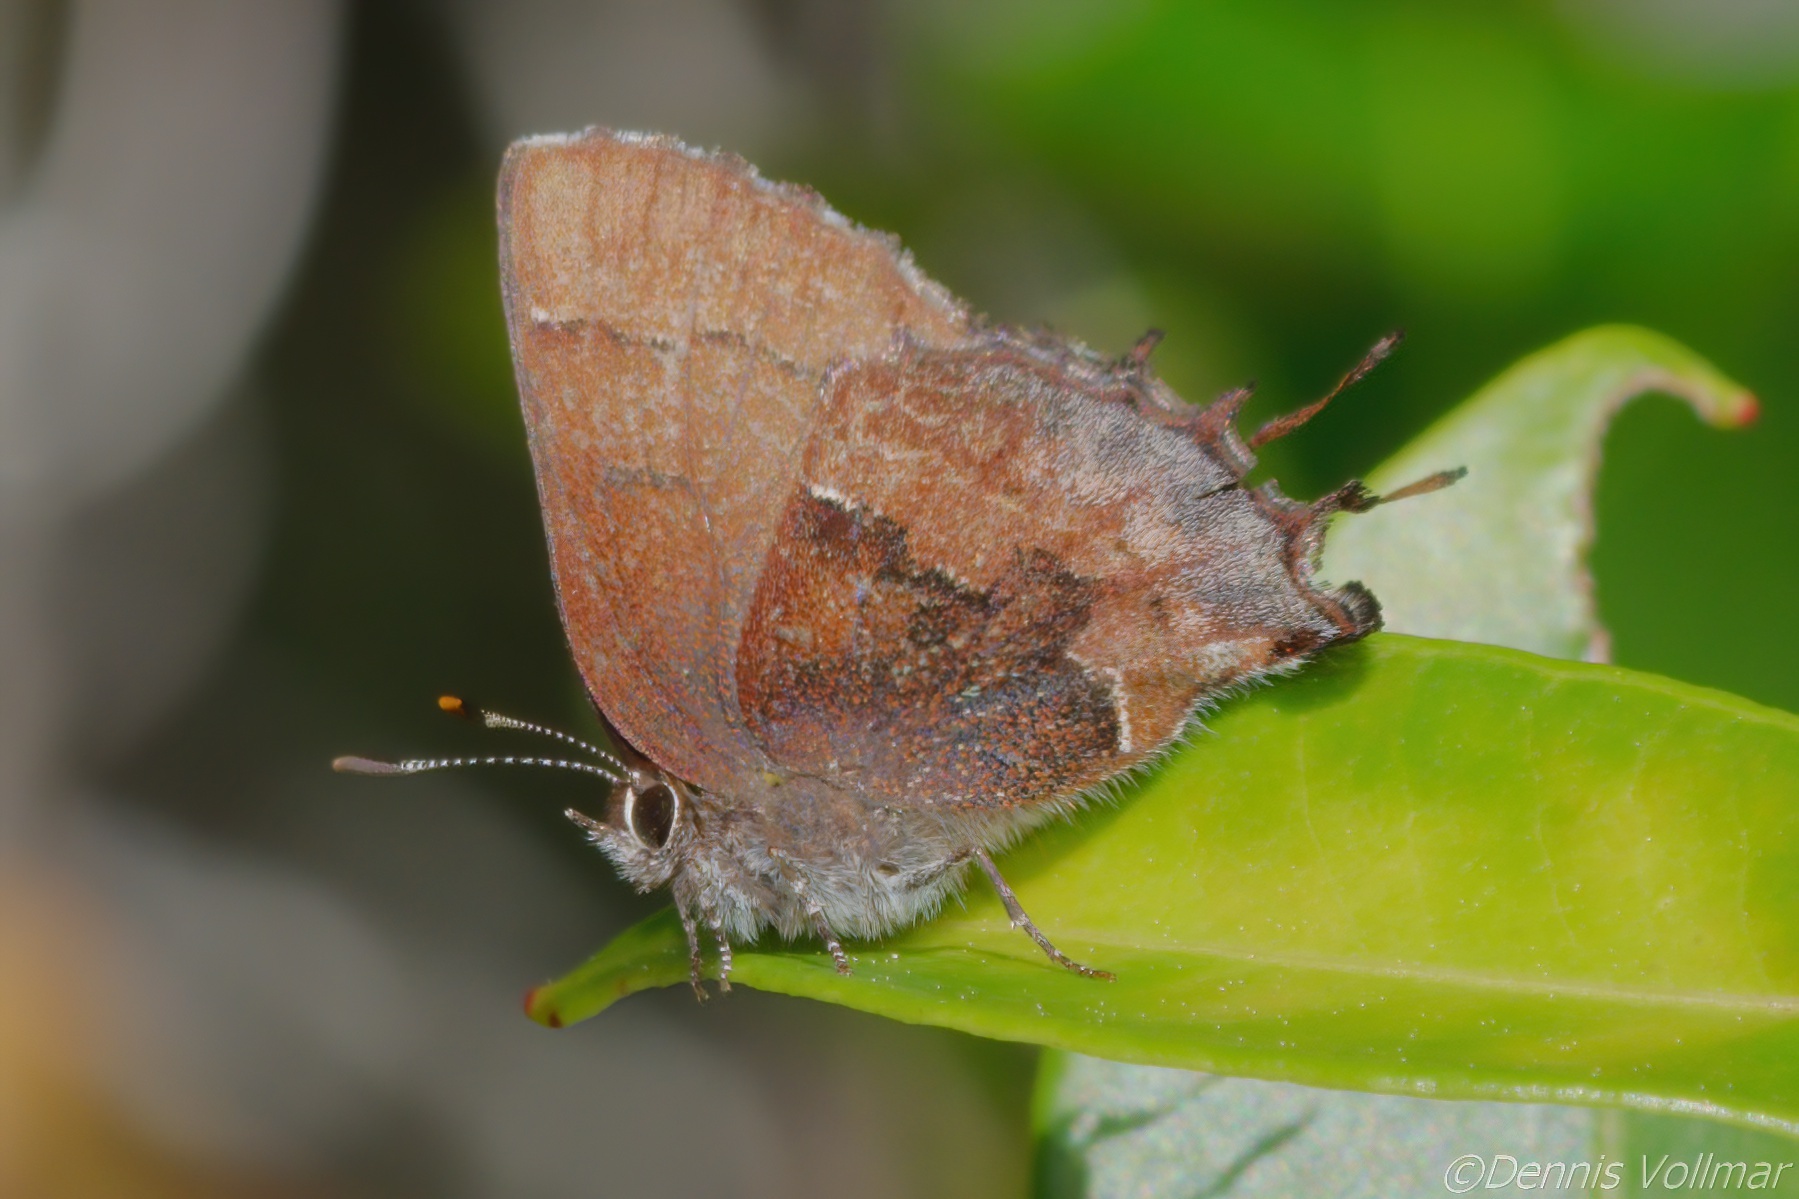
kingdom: Animalia
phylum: Arthropoda
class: Insecta
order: Lepidoptera
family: Lycaenidae
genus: Incisalia
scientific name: Incisalia henrici
